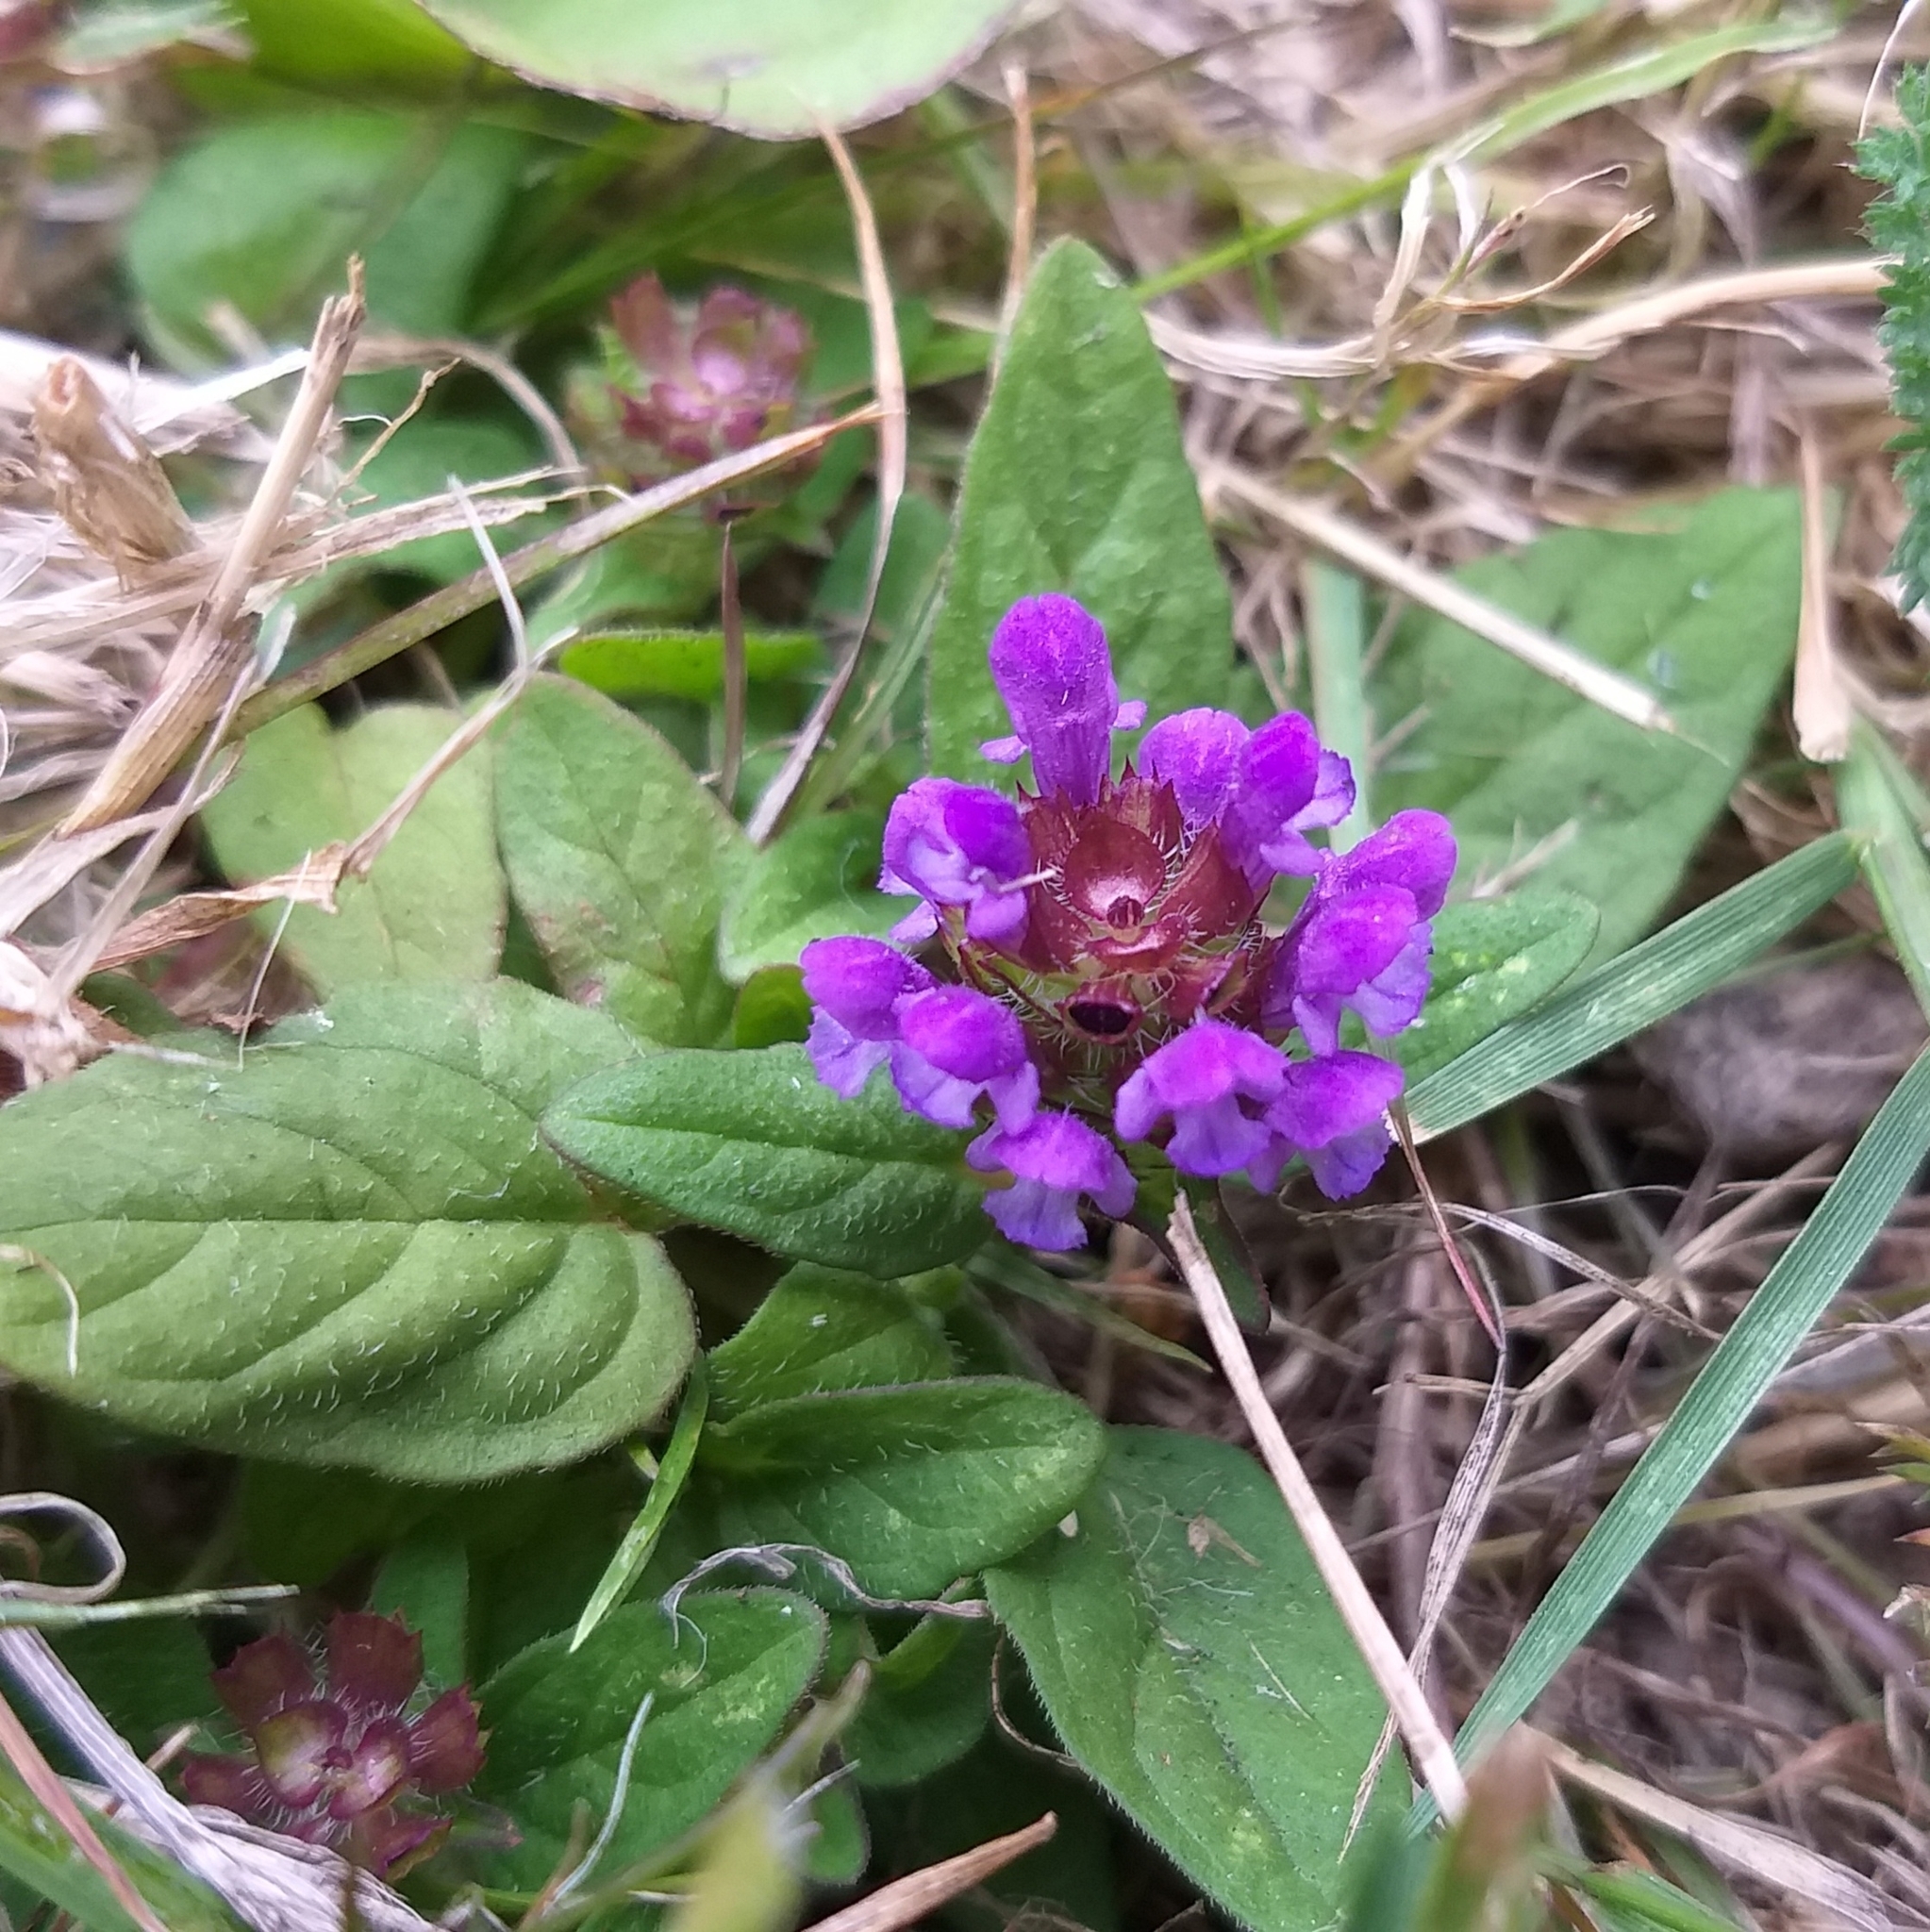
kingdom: Plantae
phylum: Tracheophyta
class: Magnoliopsida
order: Lamiales
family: Lamiaceae
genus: Prunella
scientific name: Prunella vulgaris
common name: Heal-all
